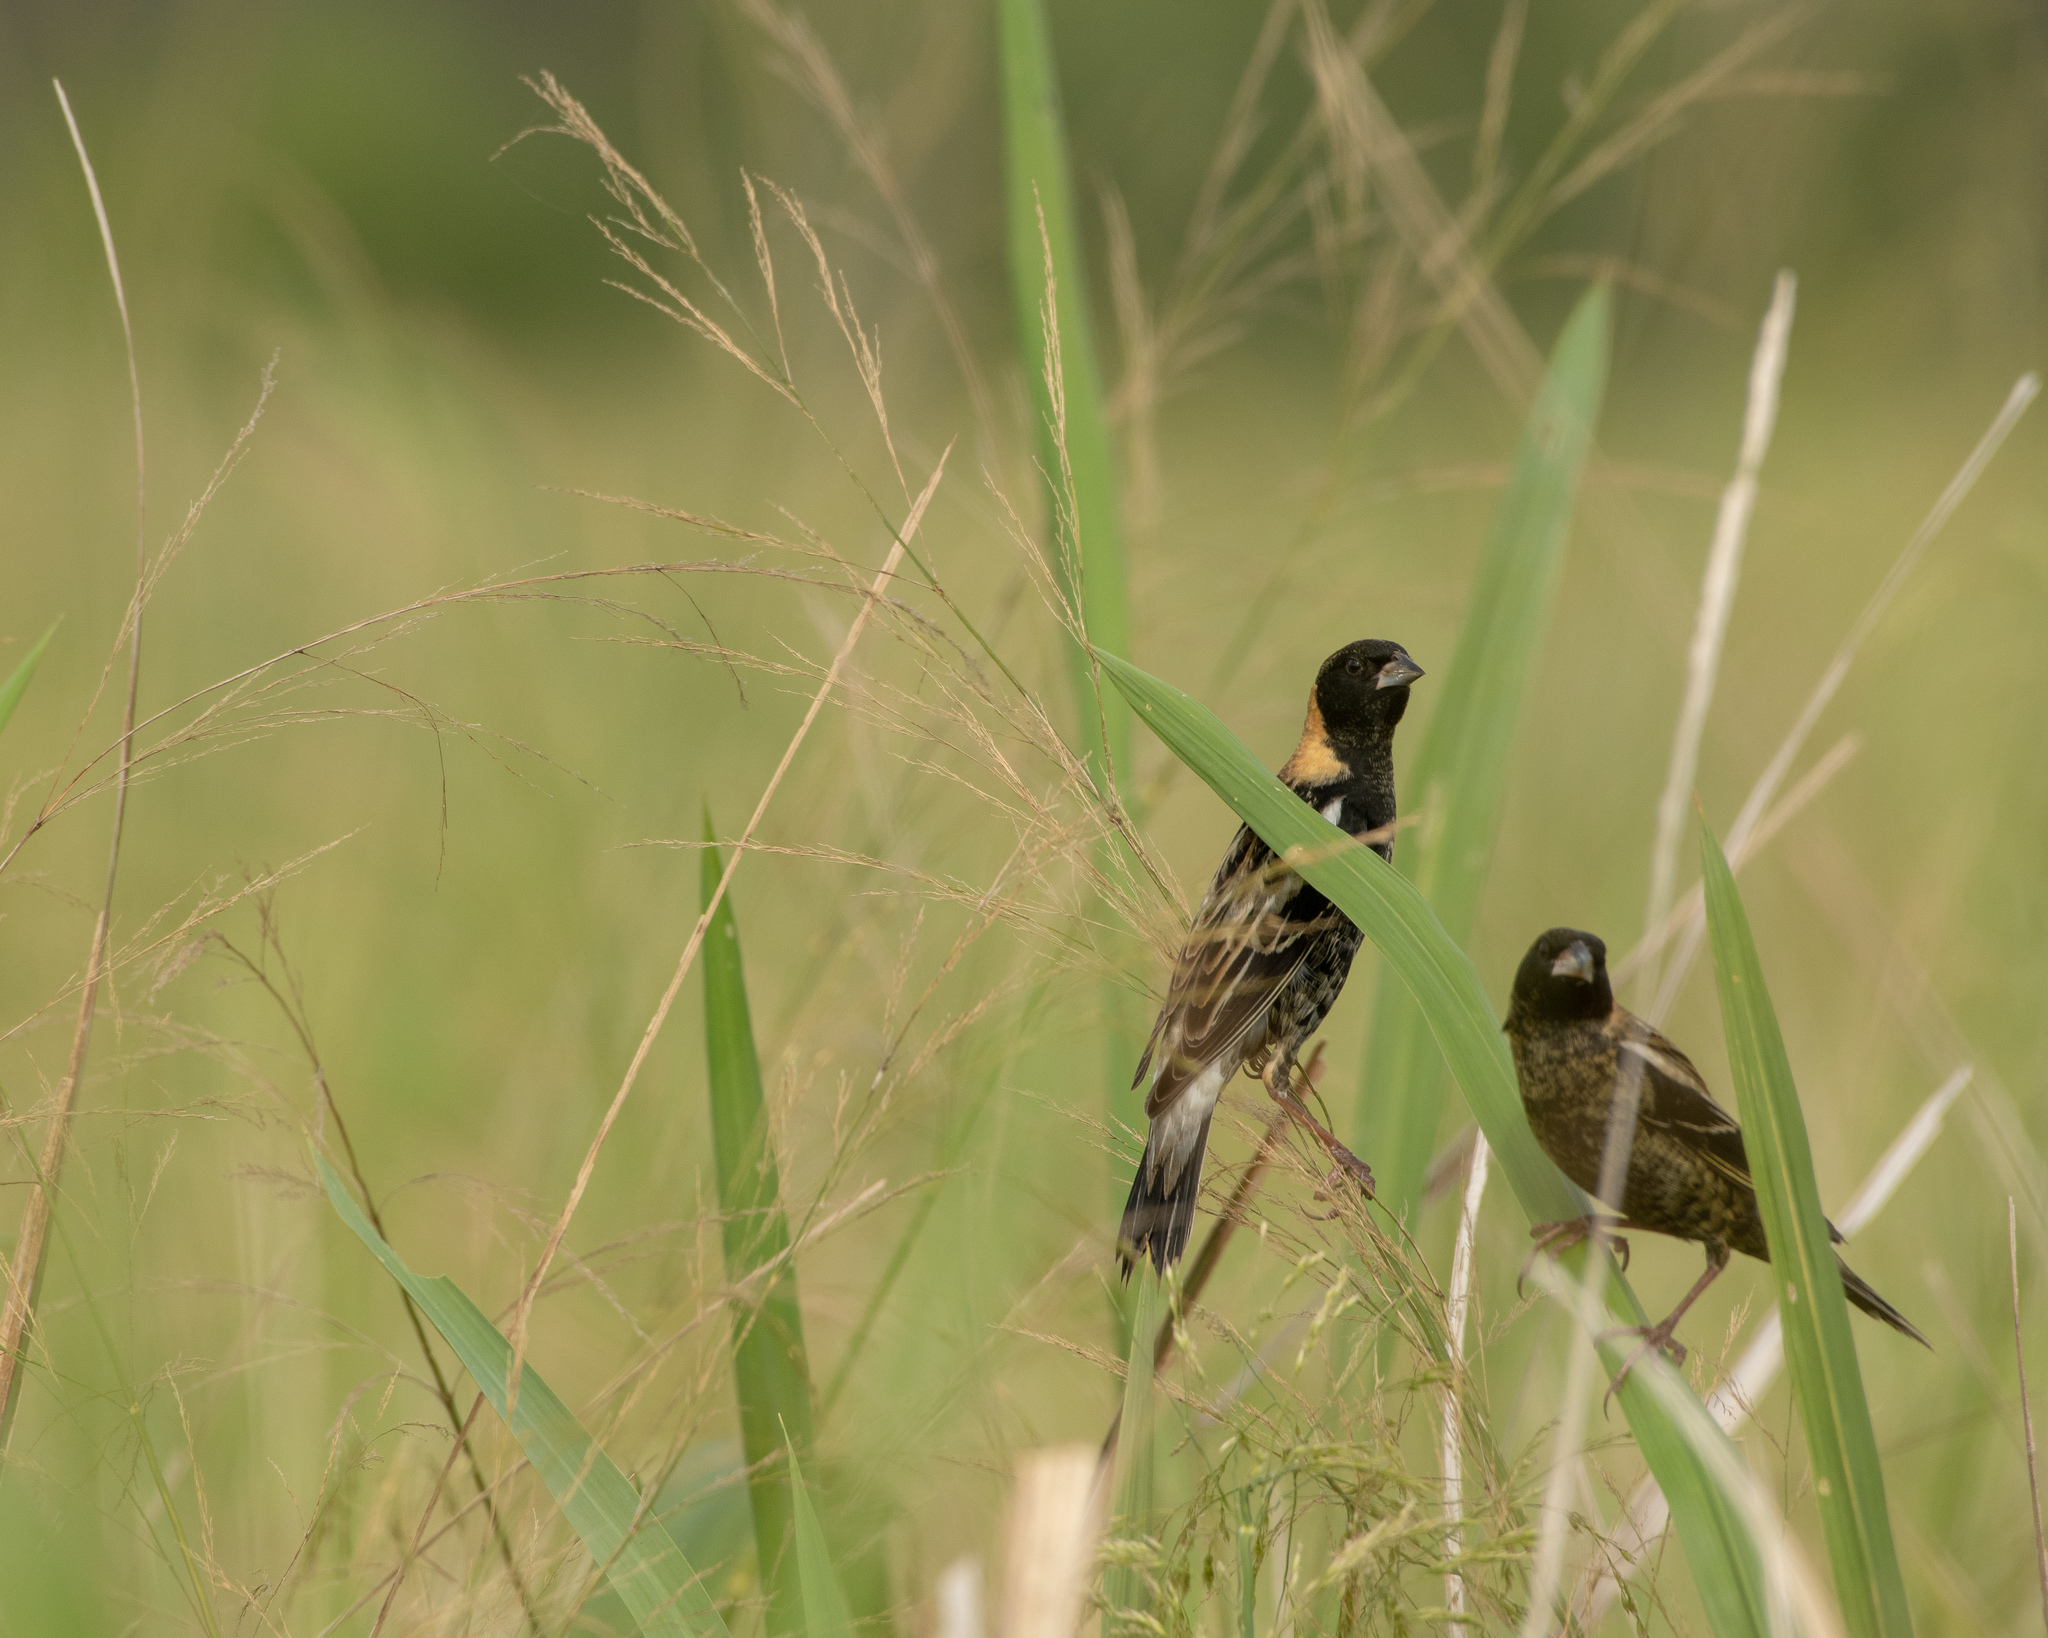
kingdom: Animalia
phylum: Chordata
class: Aves
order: Passeriformes
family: Icteridae
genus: Dolichonyx
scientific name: Dolichonyx oryzivorus
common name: Bobolink
